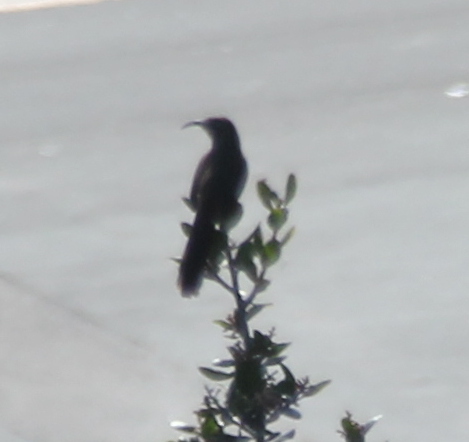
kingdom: Animalia
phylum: Chordata
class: Aves
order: Passeriformes
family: Mimidae
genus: Toxostoma
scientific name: Toxostoma redivivum
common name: California thrasher
